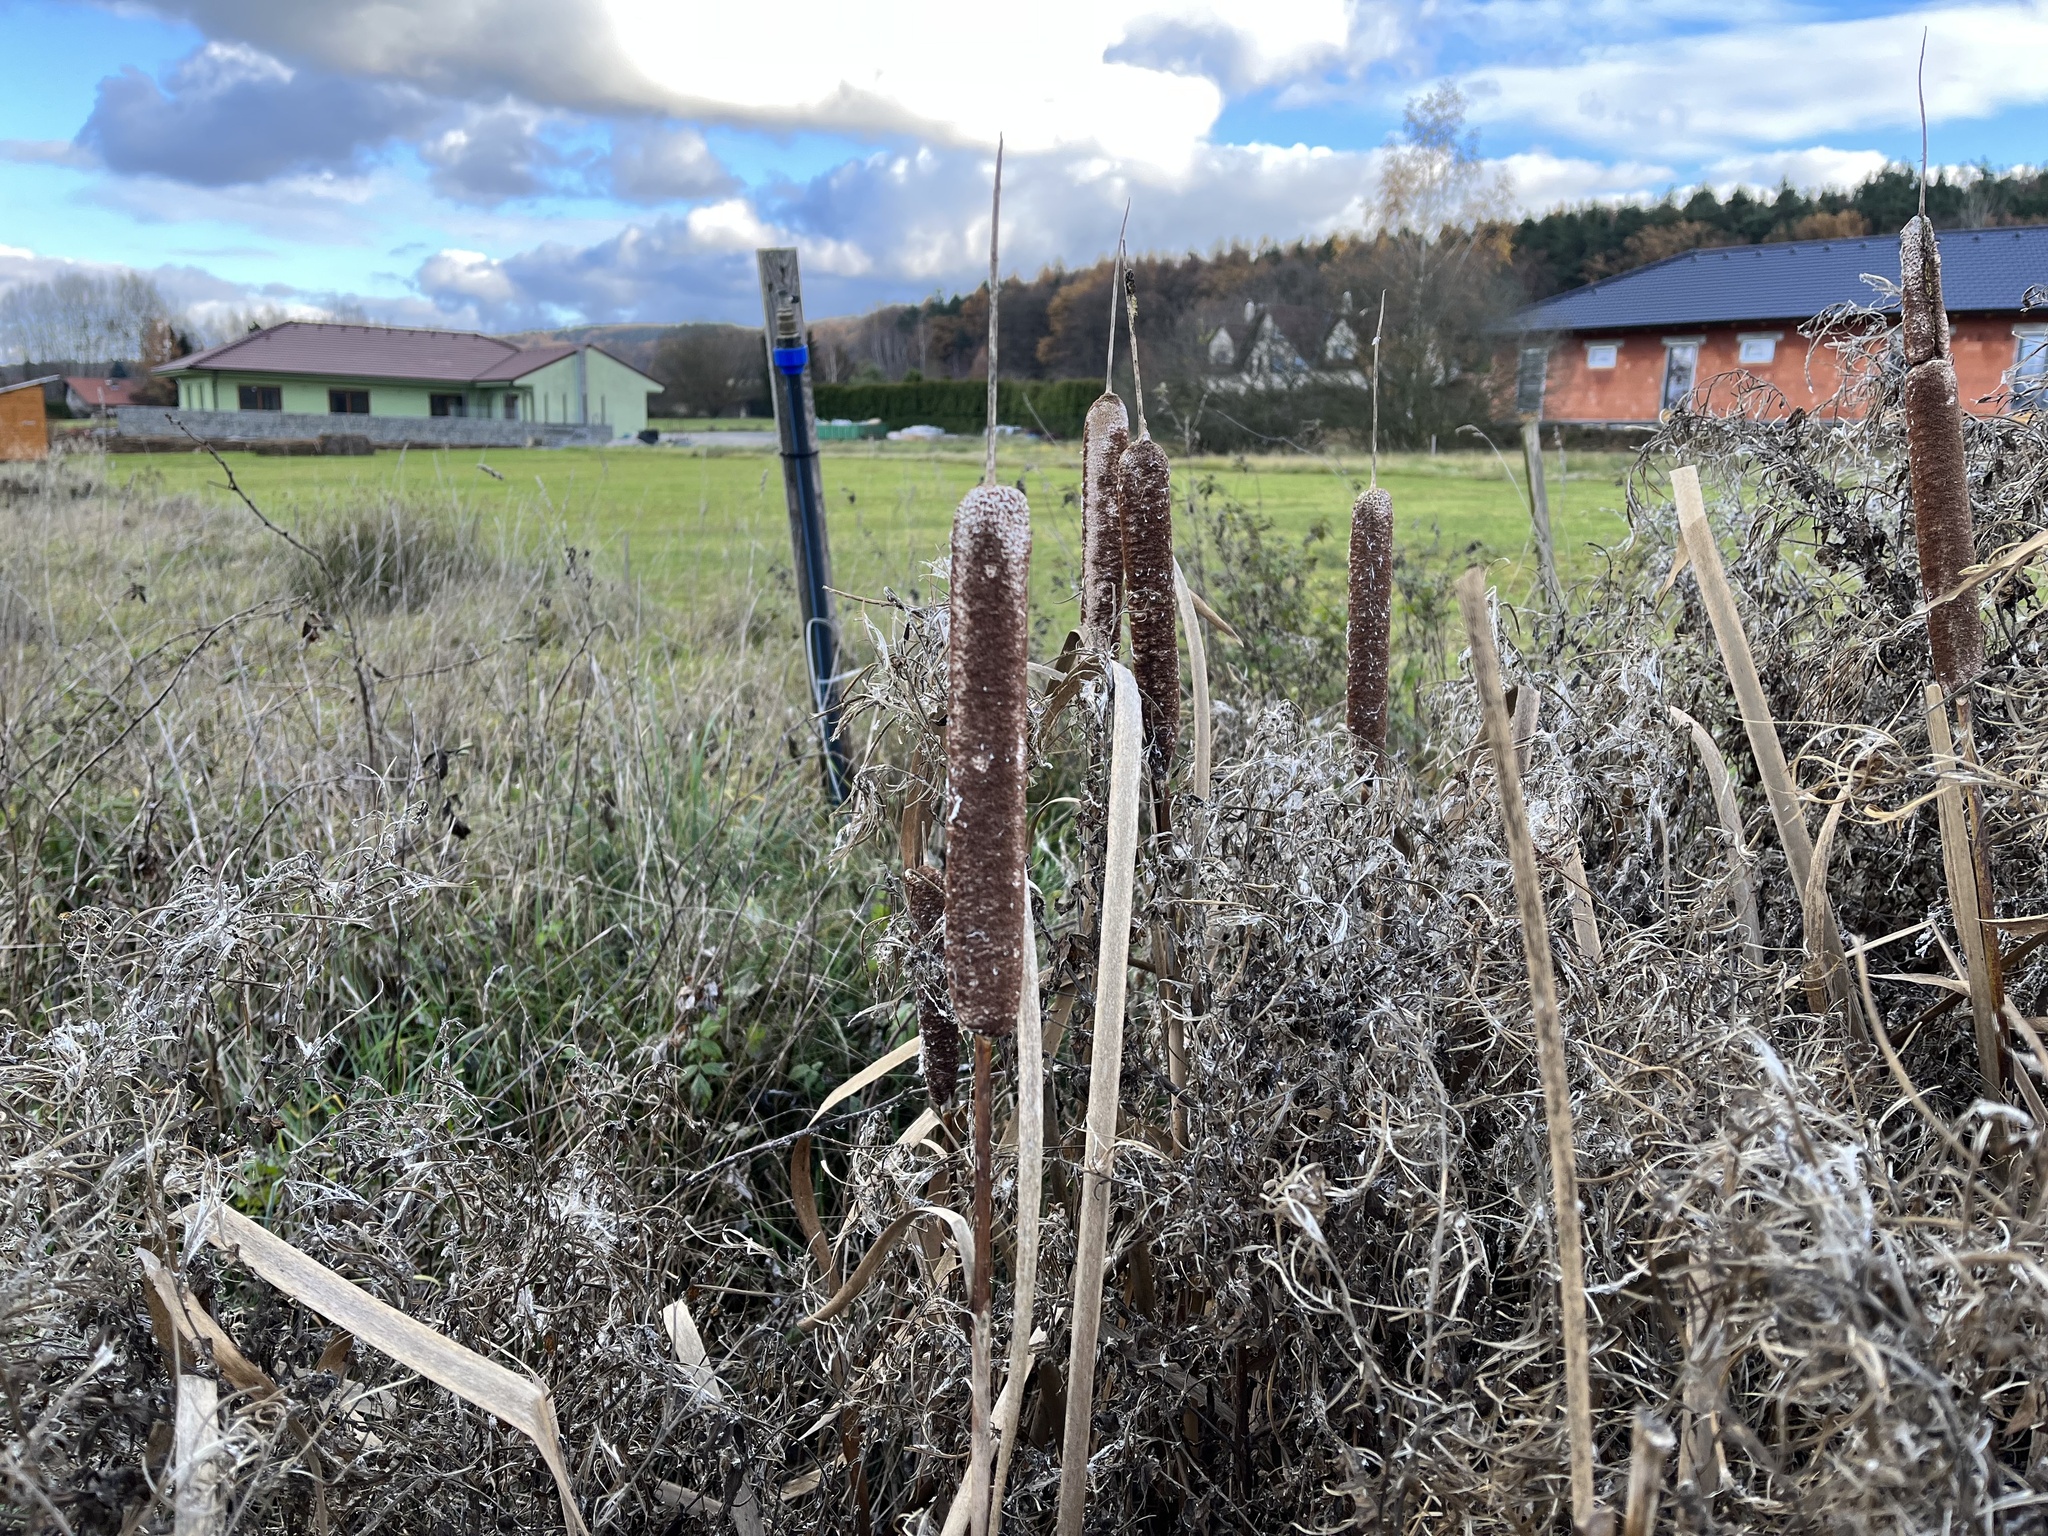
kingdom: Plantae
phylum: Tracheophyta
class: Liliopsida
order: Poales
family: Typhaceae
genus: Typha
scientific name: Typha latifolia
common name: Broadleaf cattail
